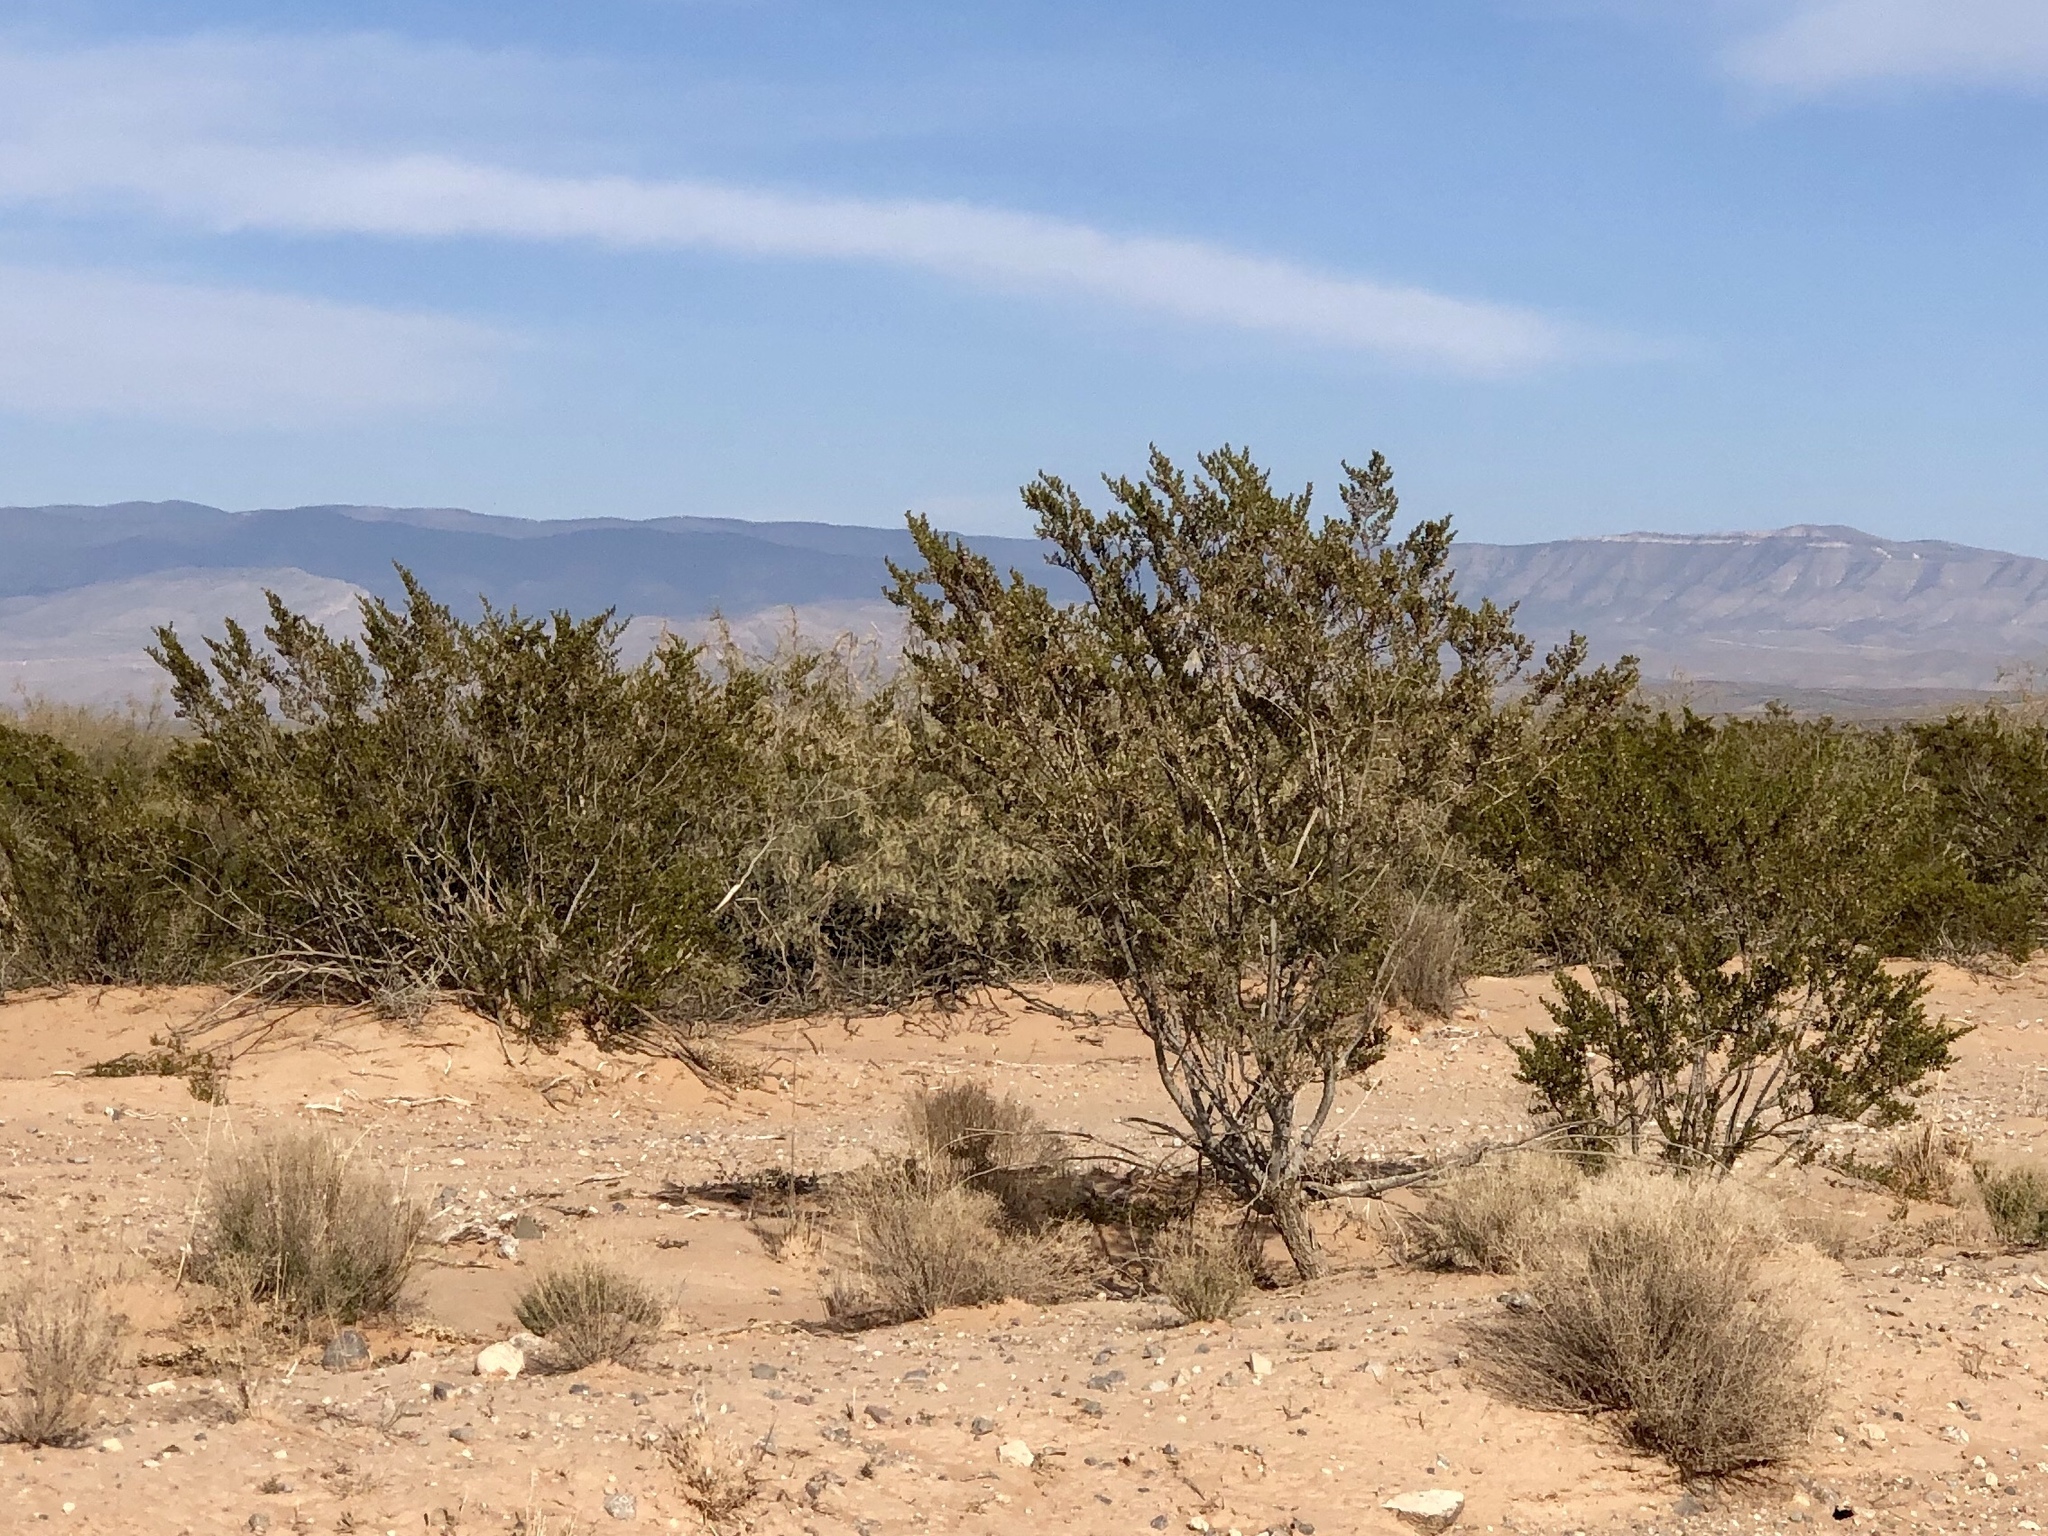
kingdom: Plantae
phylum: Tracheophyta
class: Magnoliopsida
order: Zygophyllales
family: Zygophyllaceae
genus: Larrea
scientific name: Larrea tridentata
